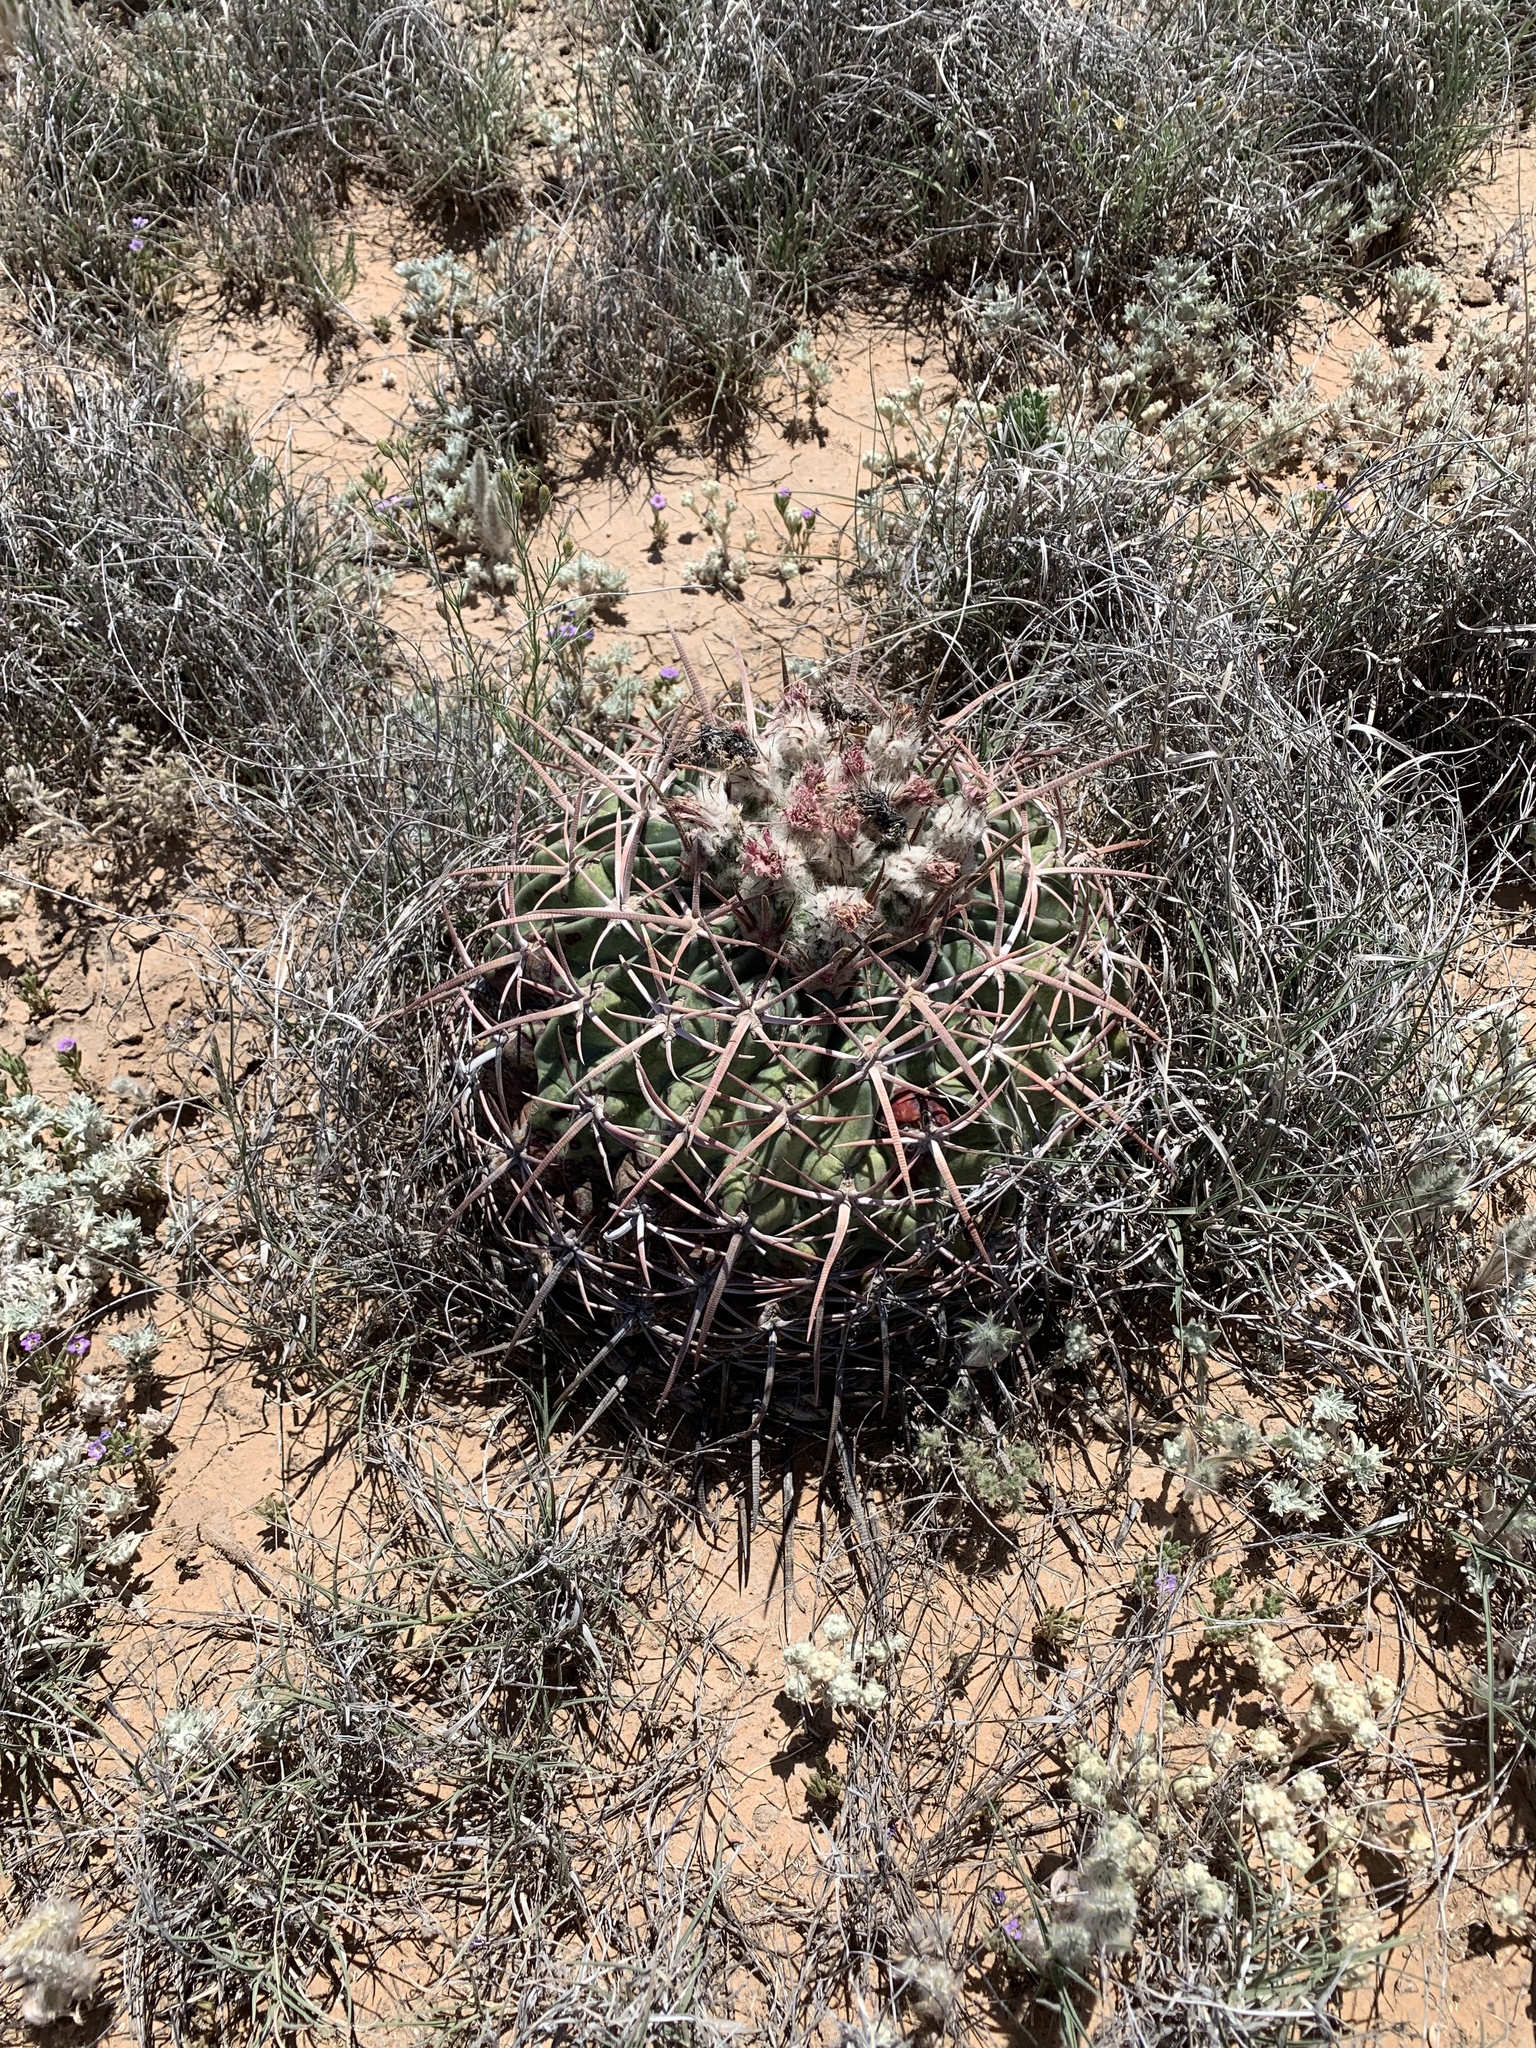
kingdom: Plantae
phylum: Tracheophyta
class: Magnoliopsida
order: Caryophyllales
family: Cactaceae
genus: Echinocactus
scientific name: Echinocactus texensis
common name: Devil's pincushion
